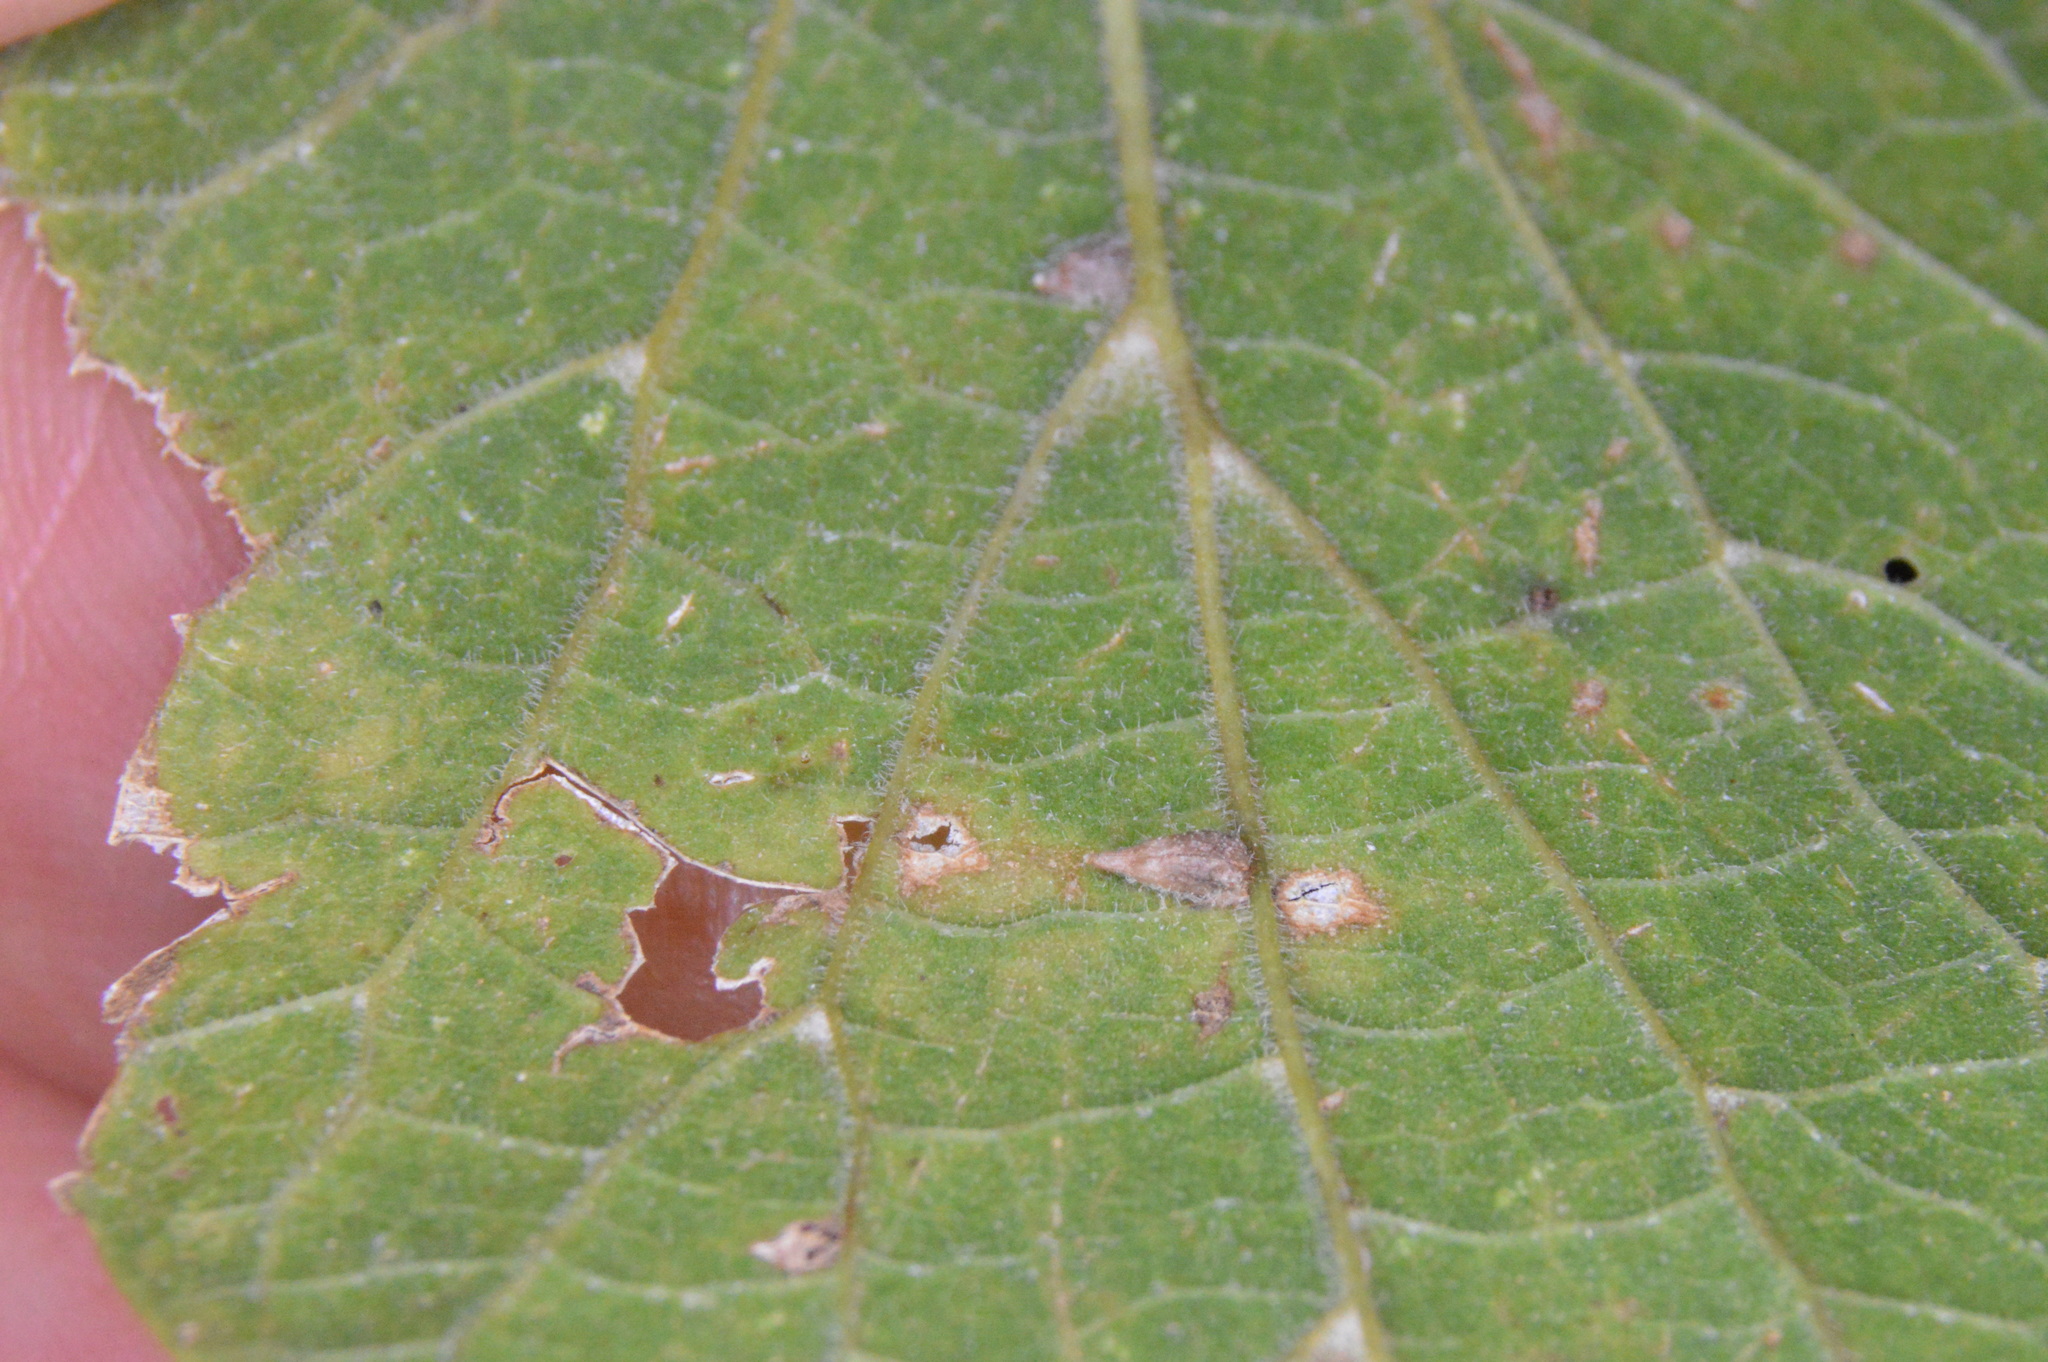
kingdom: Animalia
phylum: Arthropoda
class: Insecta
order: Diptera
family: Cecidomyiidae
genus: Celticecis
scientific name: Celticecis supina
